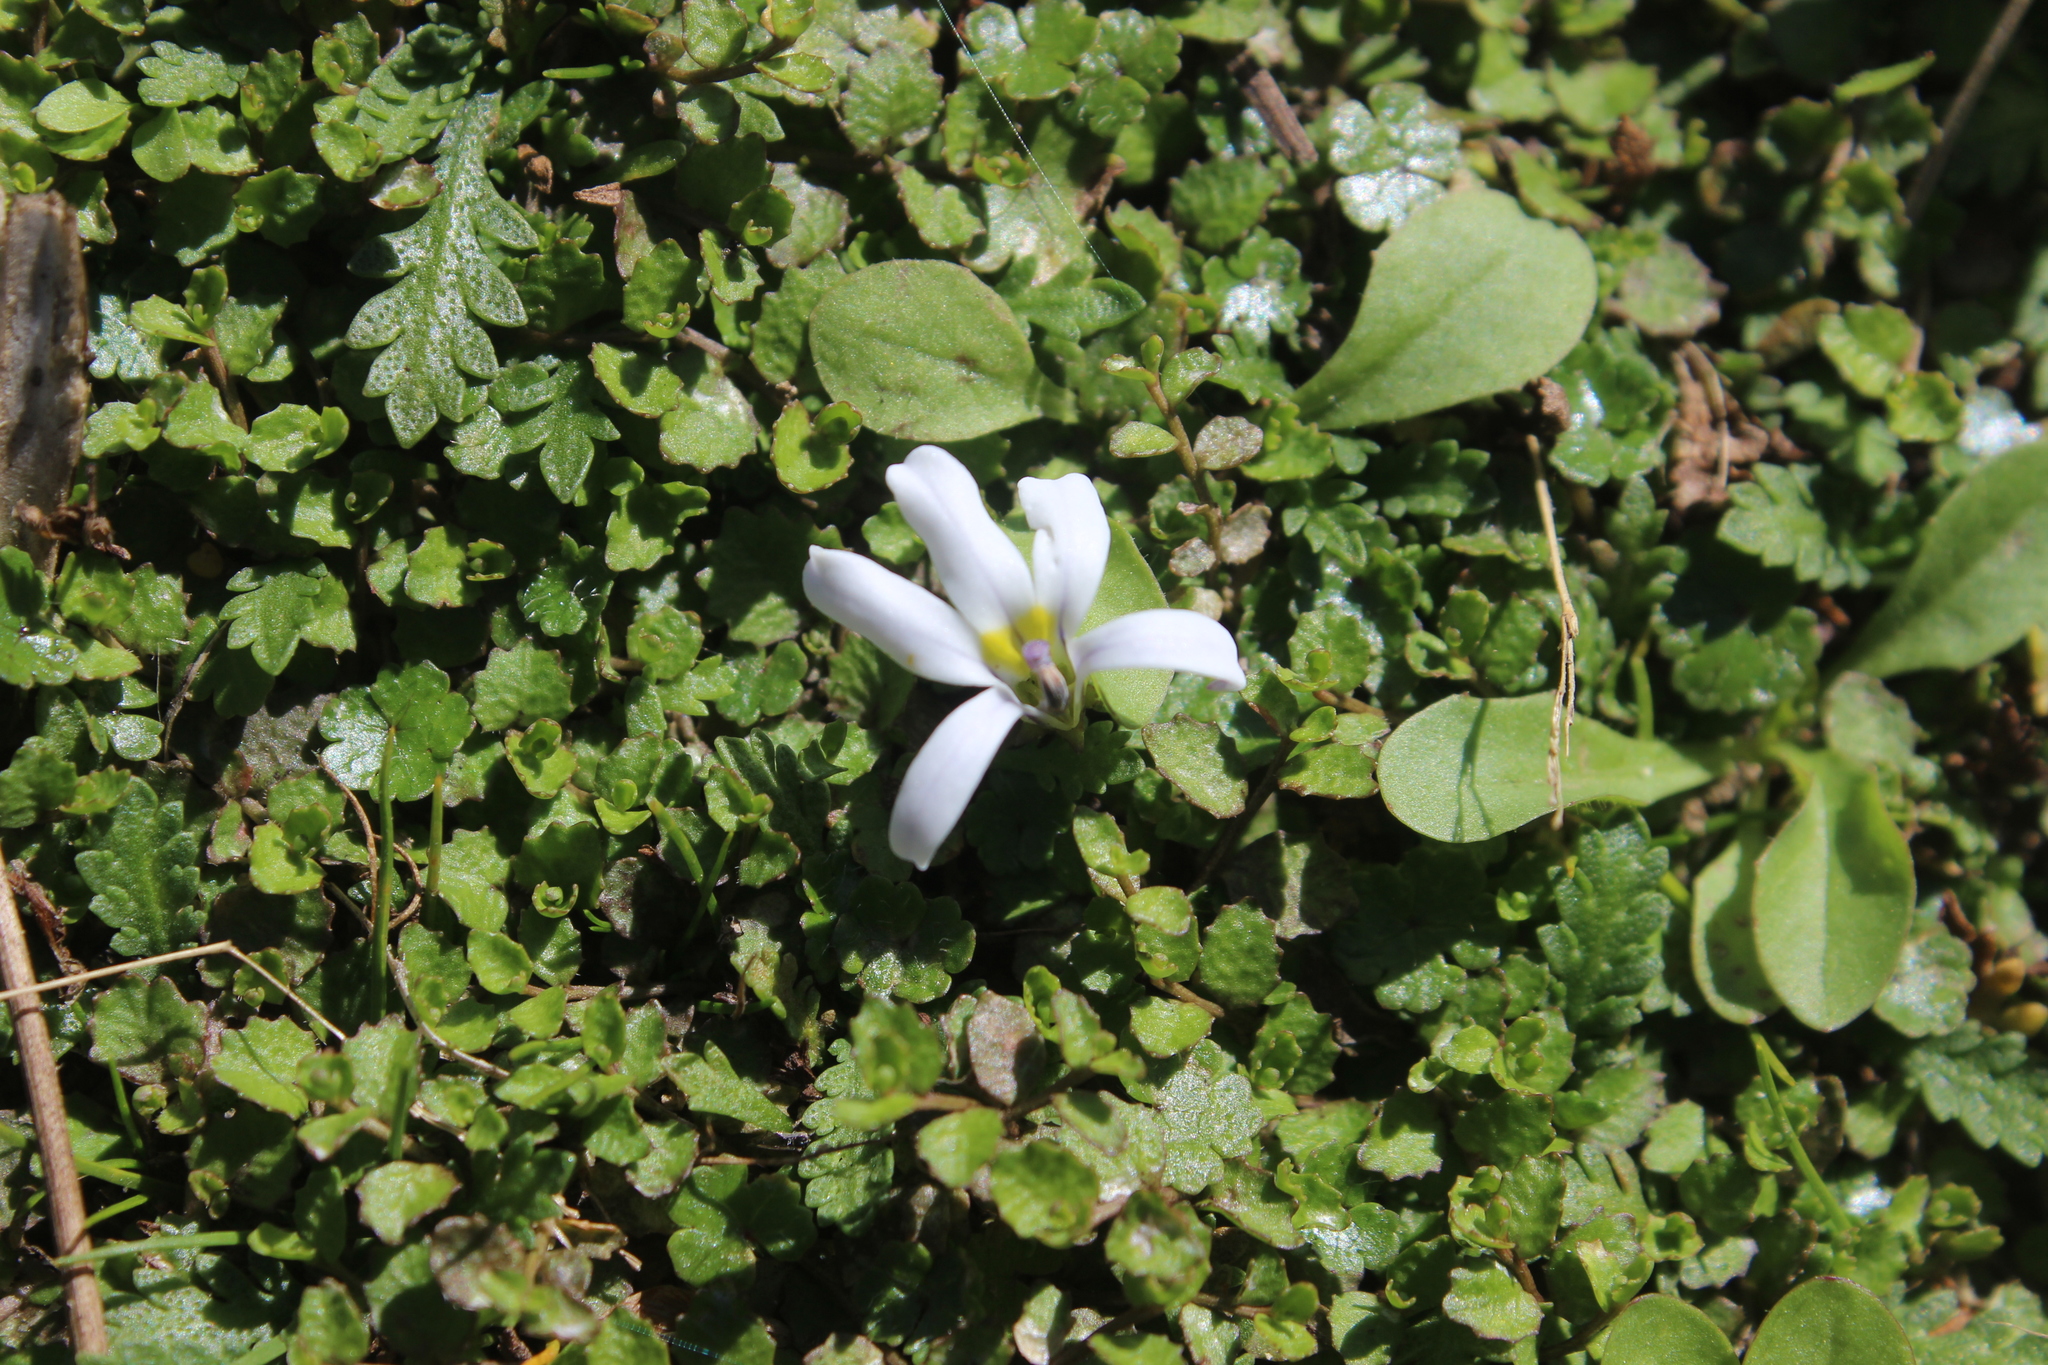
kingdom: Plantae
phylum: Tracheophyta
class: Magnoliopsida
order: Asterales
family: Campanulaceae
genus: Lobelia
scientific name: Lobelia perpusilla
